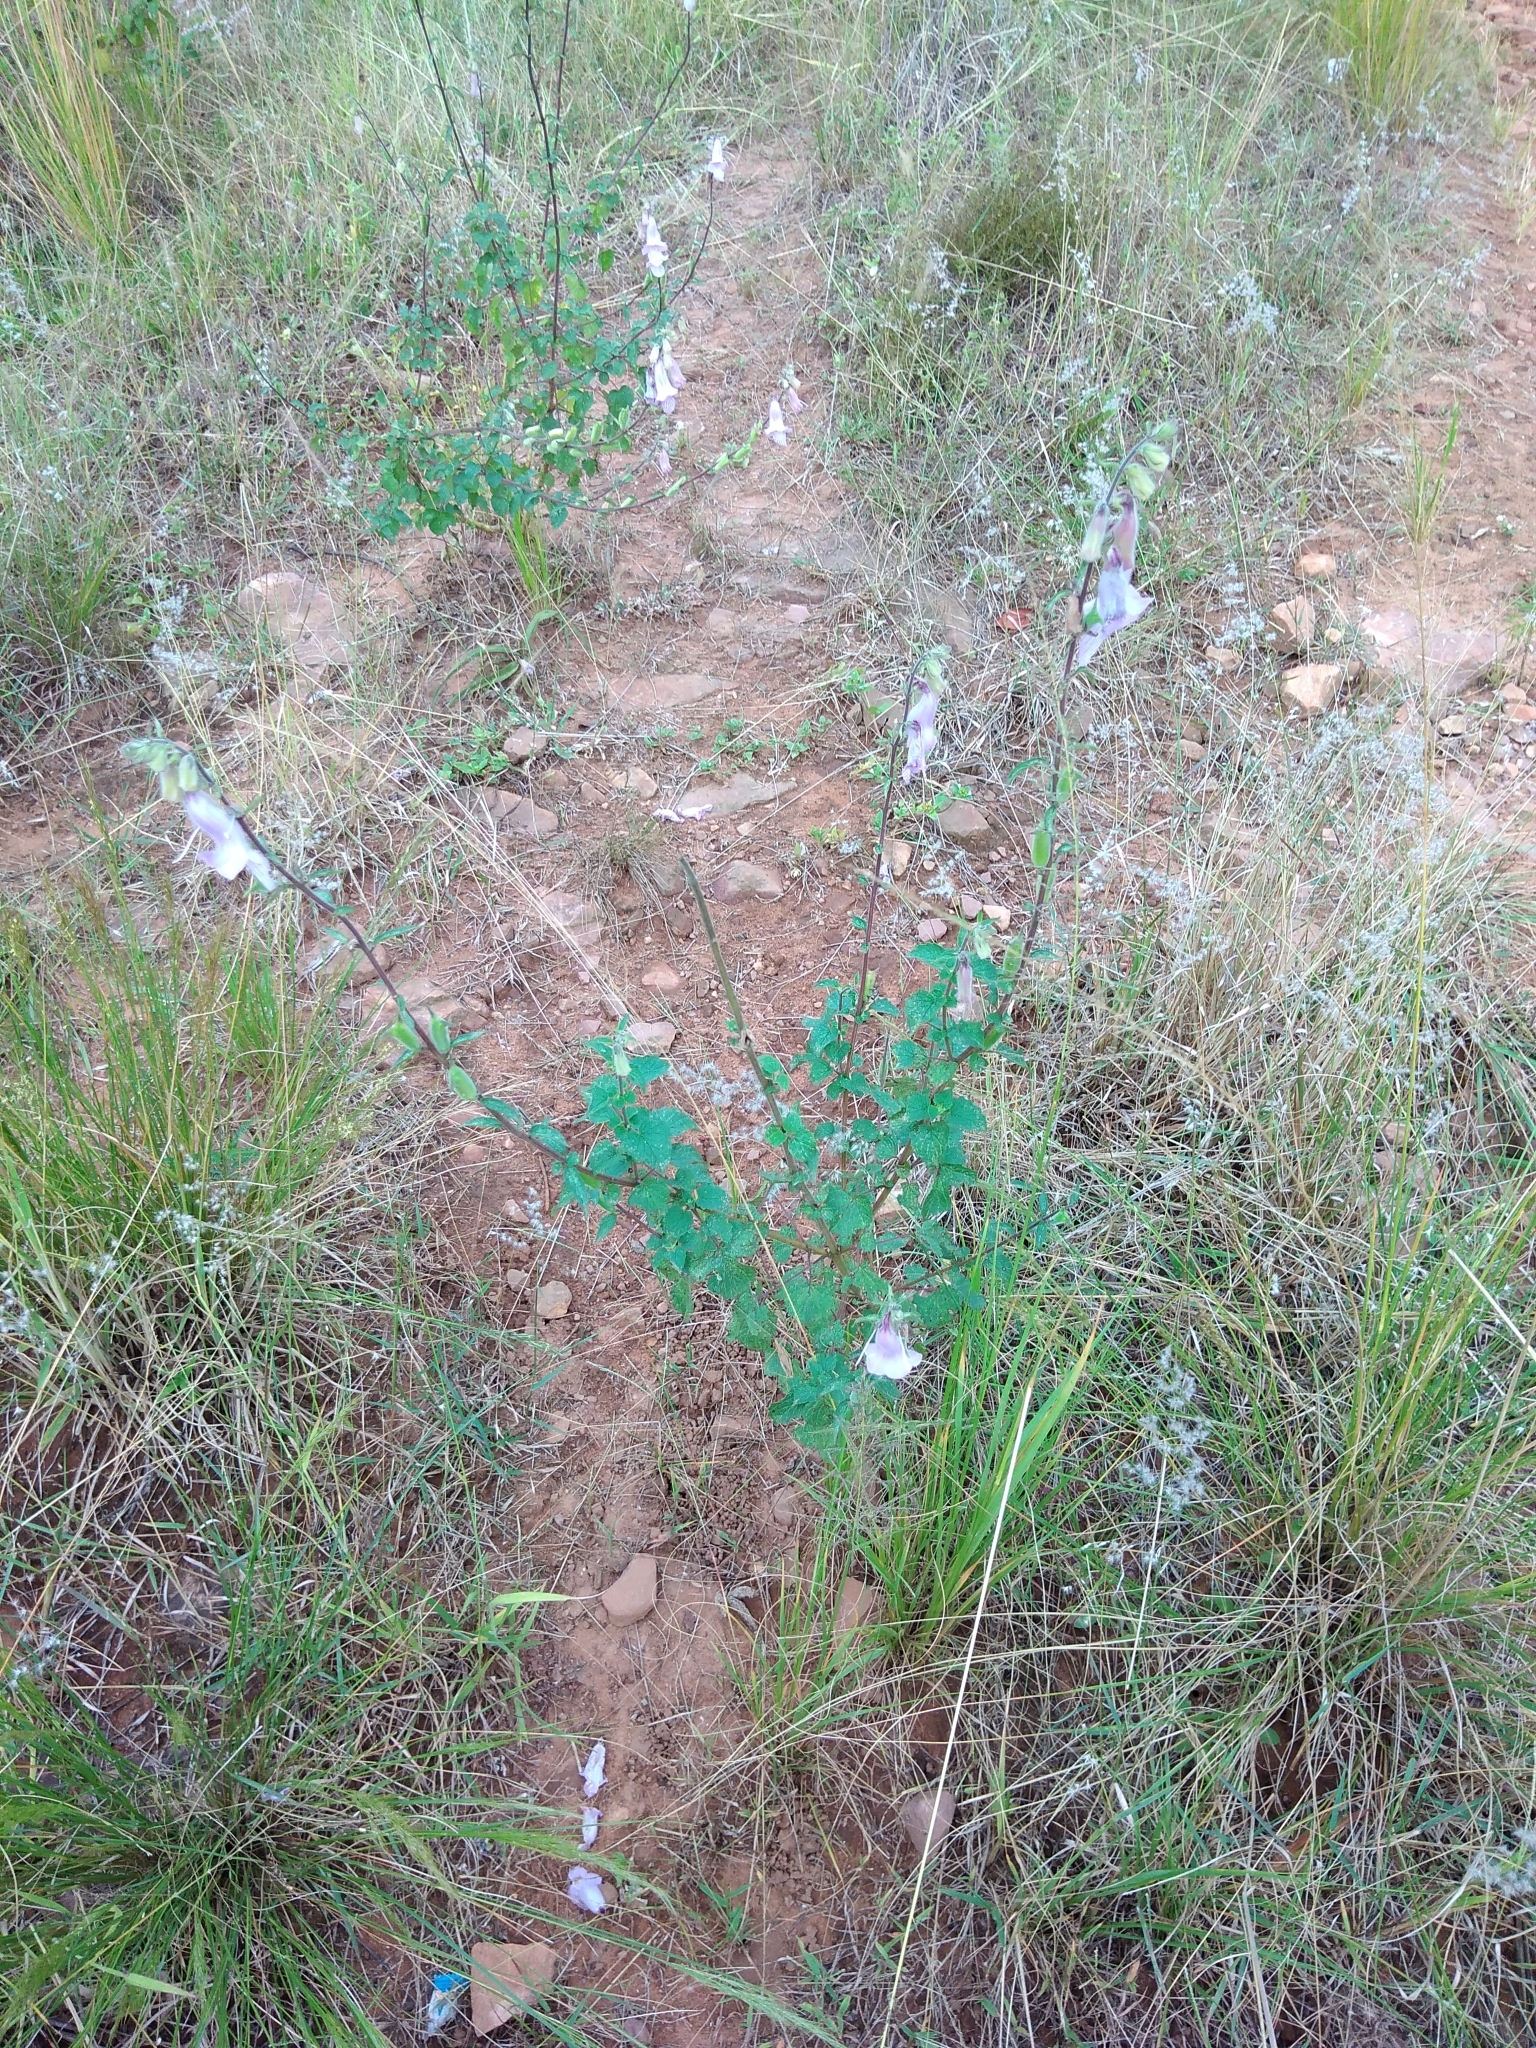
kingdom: Plantae
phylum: Tracheophyta
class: Magnoliopsida
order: Lamiales
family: Pedaliaceae
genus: Sesamum
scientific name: Sesamum trilobum
